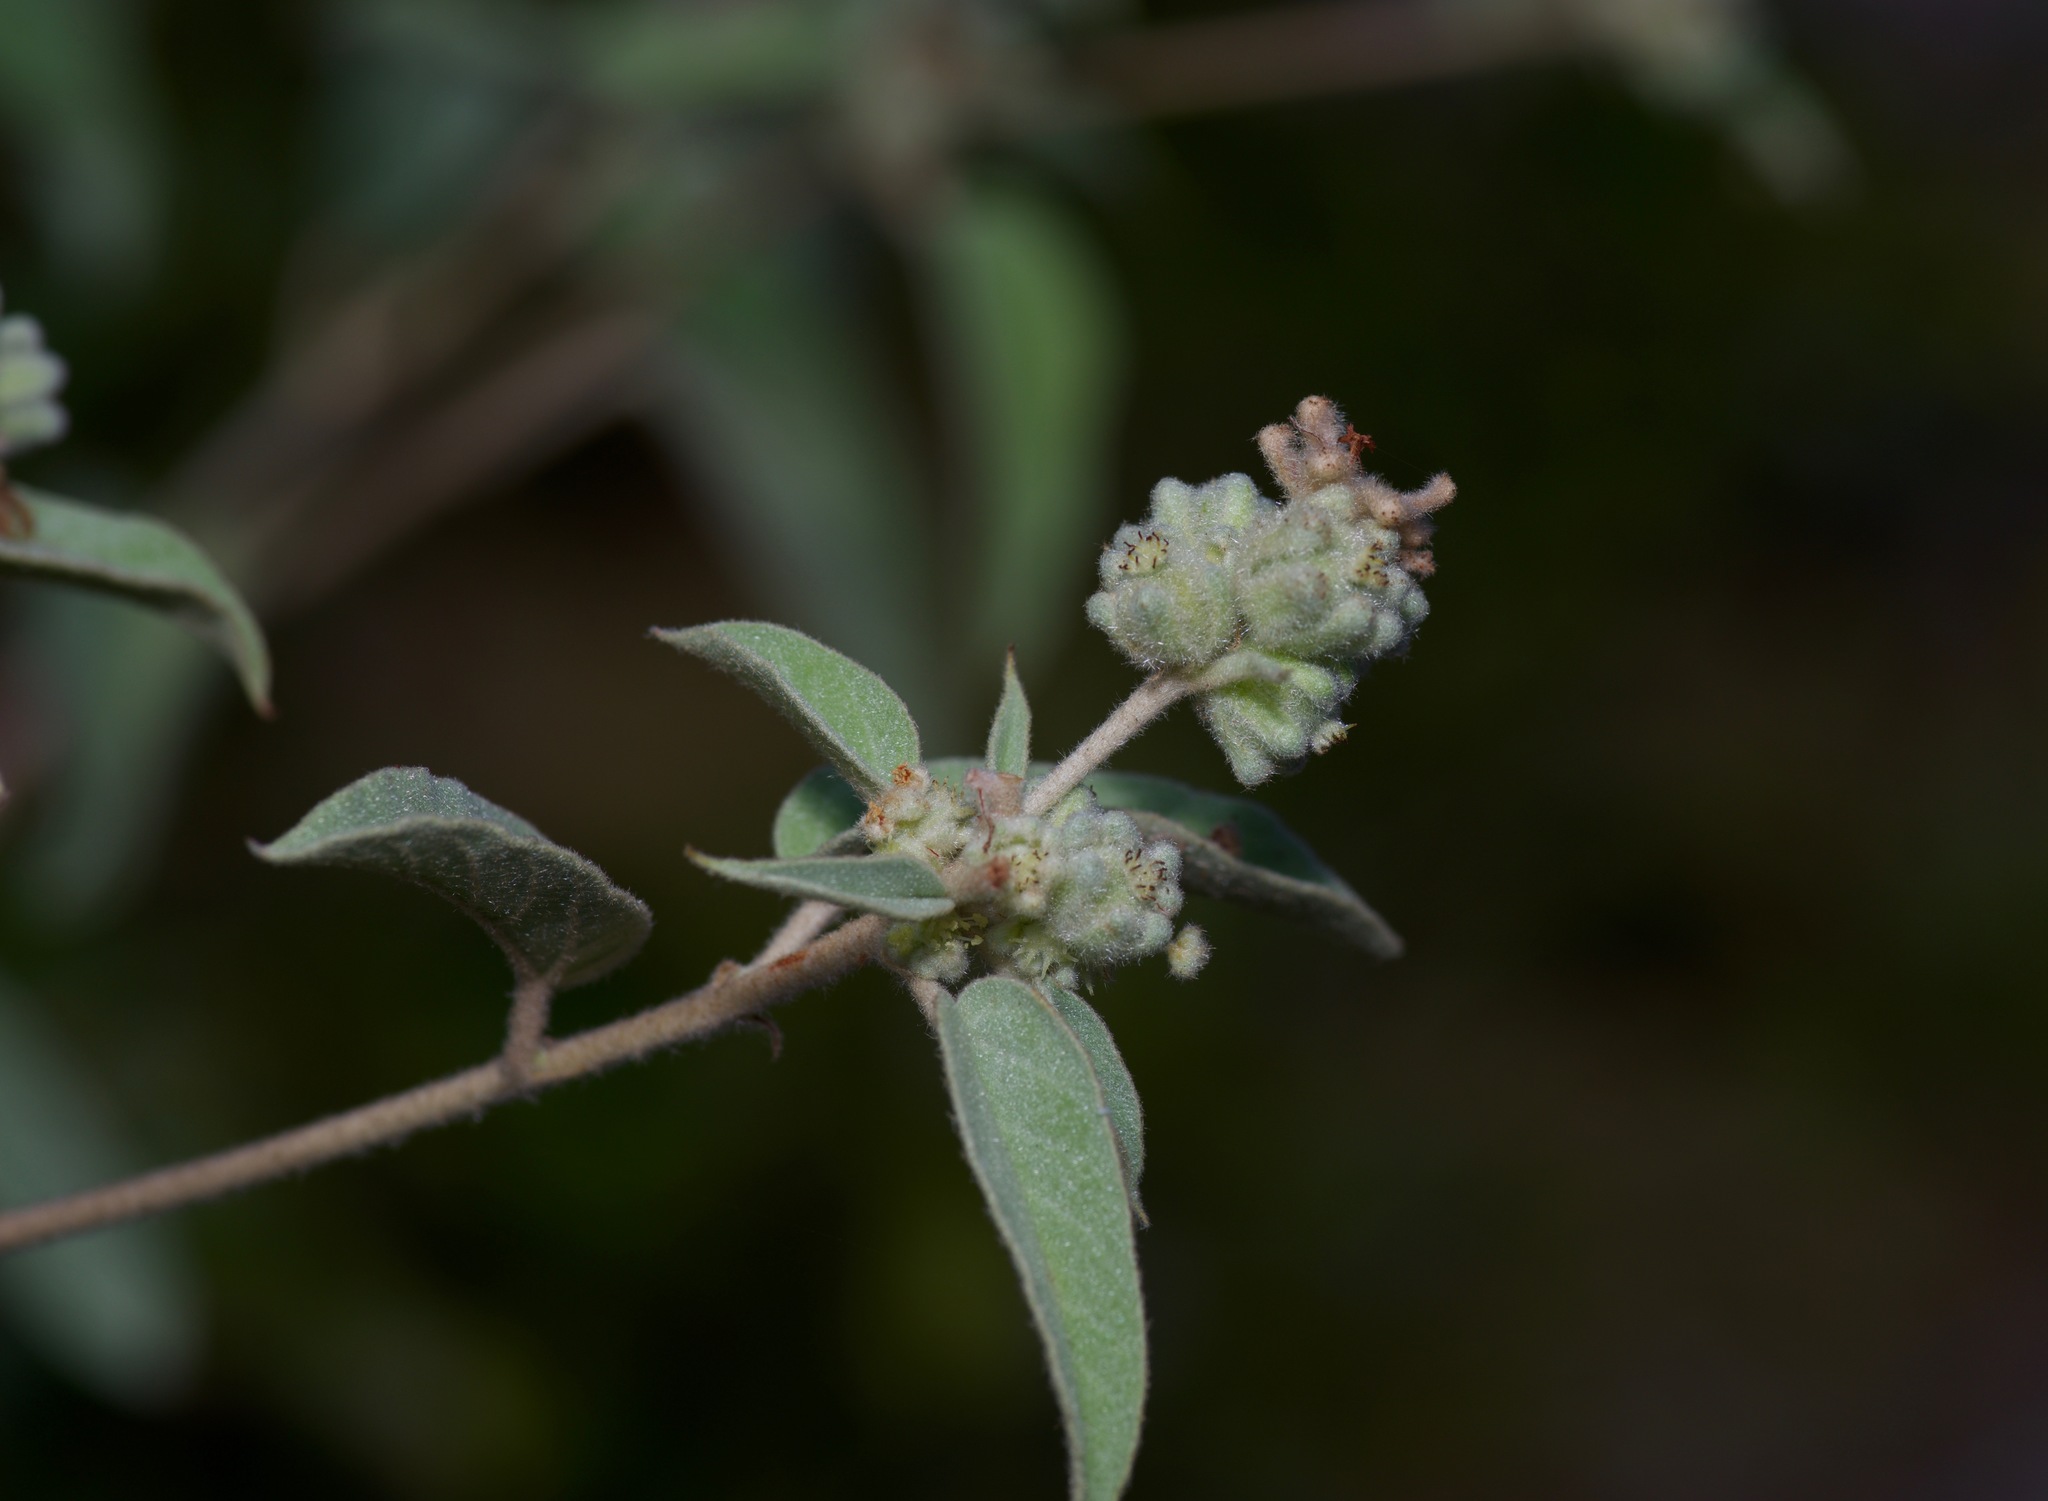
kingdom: Plantae
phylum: Tracheophyta
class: Magnoliopsida
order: Malpighiales
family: Euphorbiaceae
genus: Croton
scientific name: Croton lindheimeri
